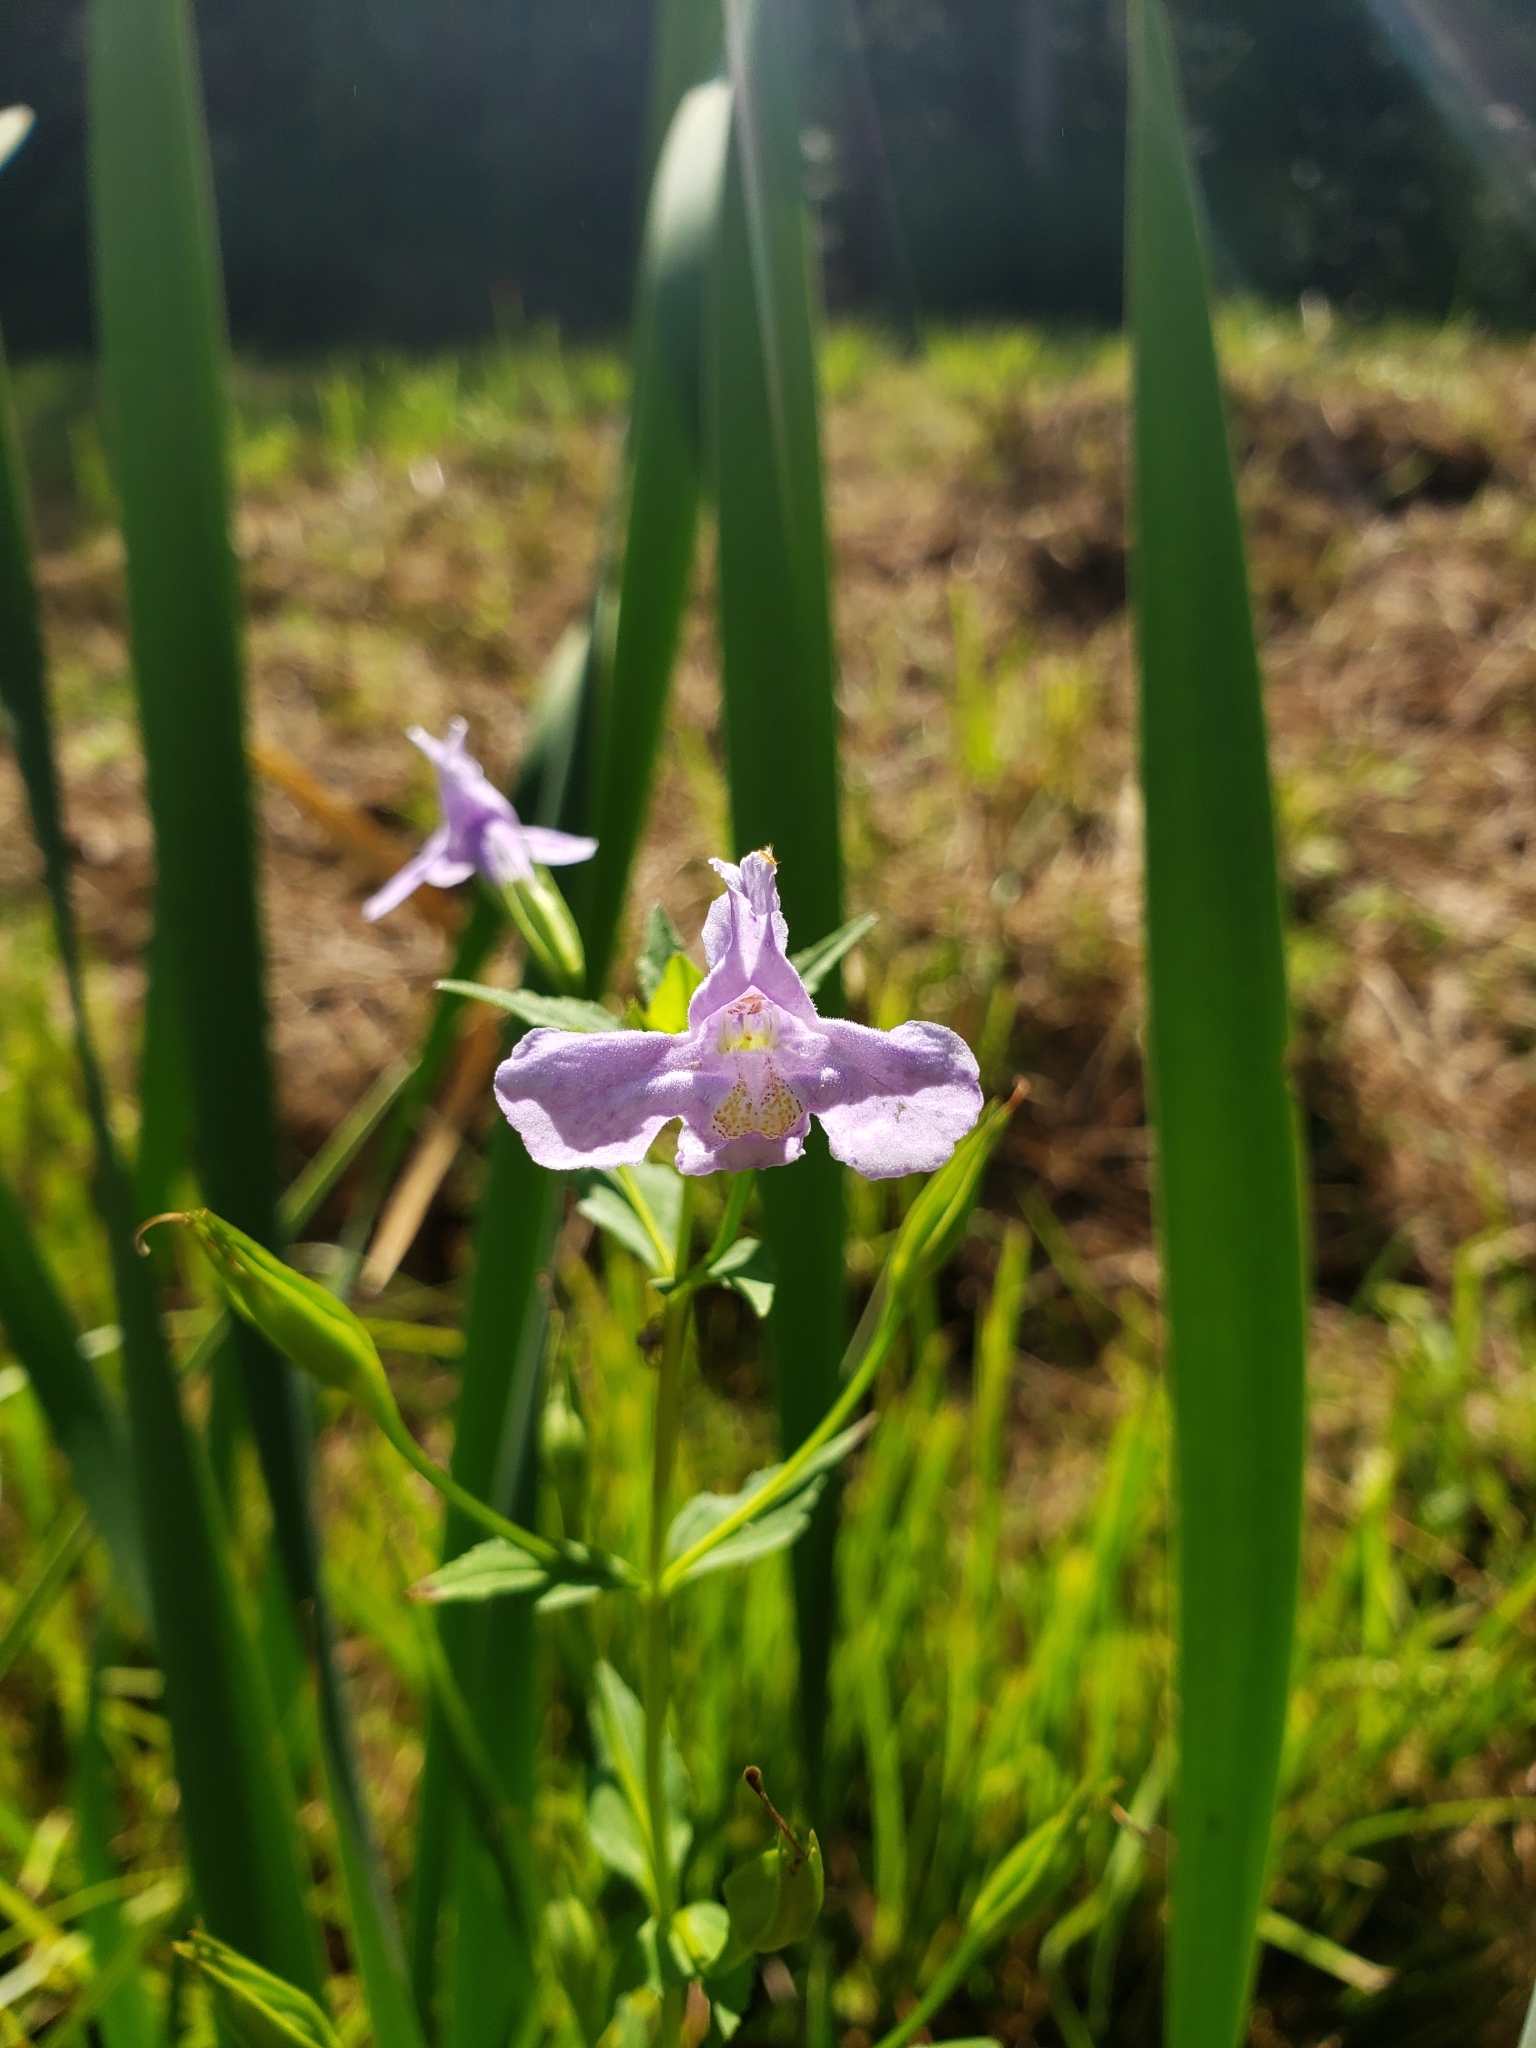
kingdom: Plantae
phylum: Tracheophyta
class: Magnoliopsida
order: Lamiales
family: Phrymaceae
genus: Mimulus
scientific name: Mimulus ringens
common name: Allegheny monkeyflower
